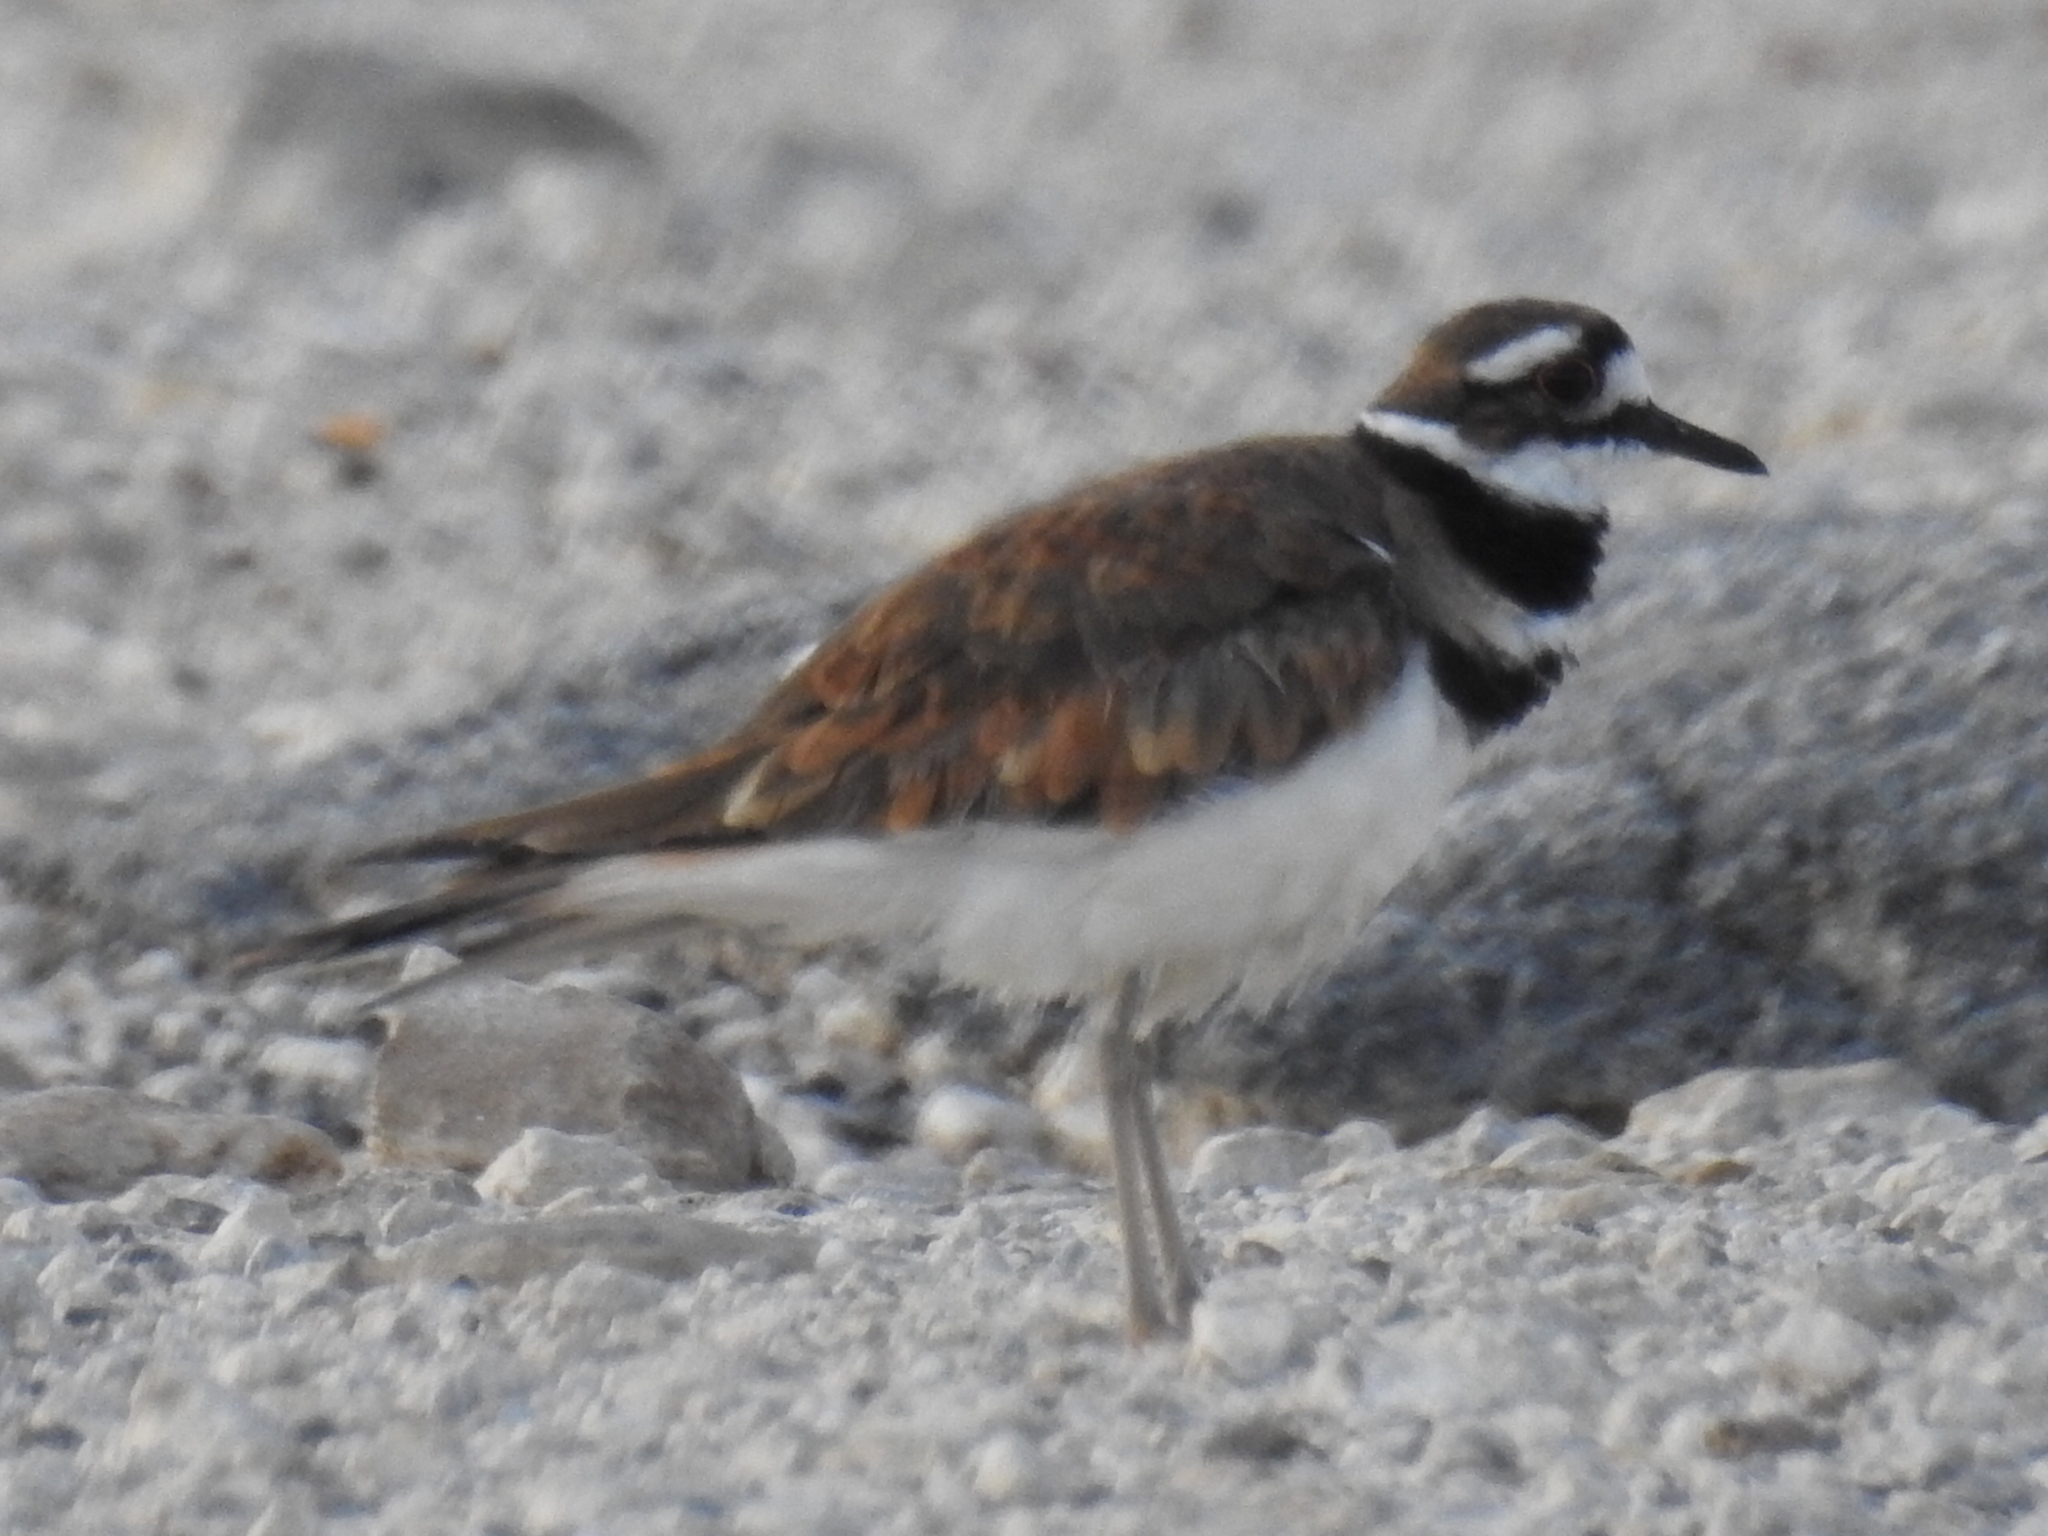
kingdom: Animalia
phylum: Chordata
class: Aves
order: Charadriiformes
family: Charadriidae
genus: Charadrius
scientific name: Charadrius vociferus
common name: Killdeer
